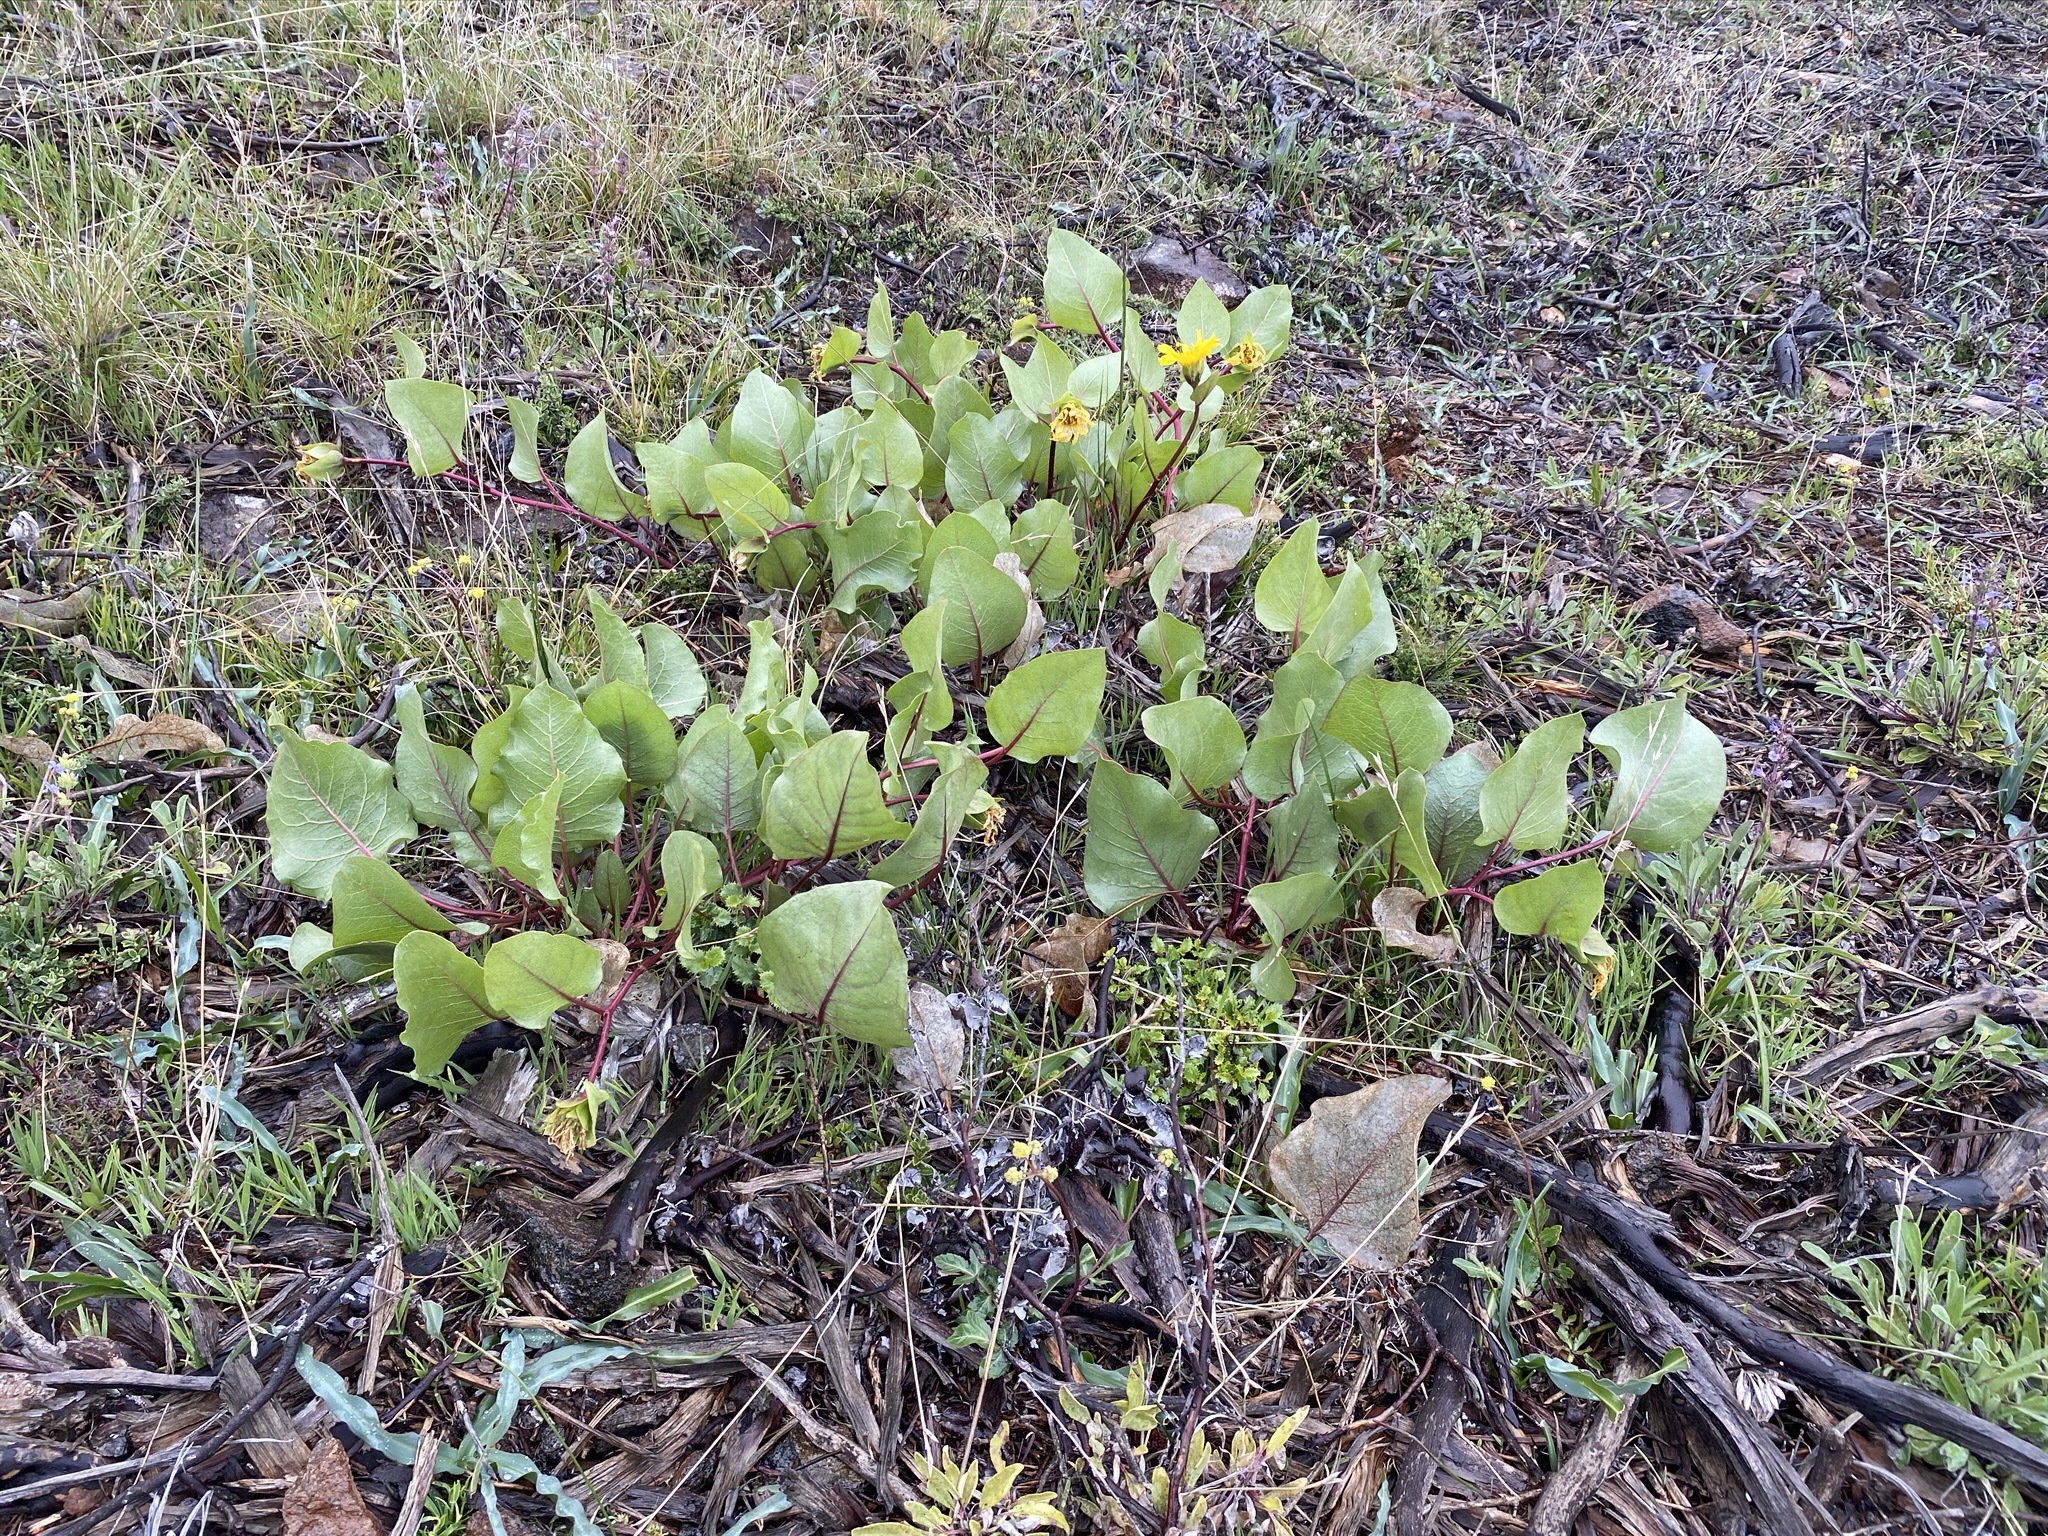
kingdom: Plantae
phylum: Tracheophyta
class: Magnoliopsida
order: Asterales
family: Asteraceae
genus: Agnorhiza
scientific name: Agnorhiza bolanderi
